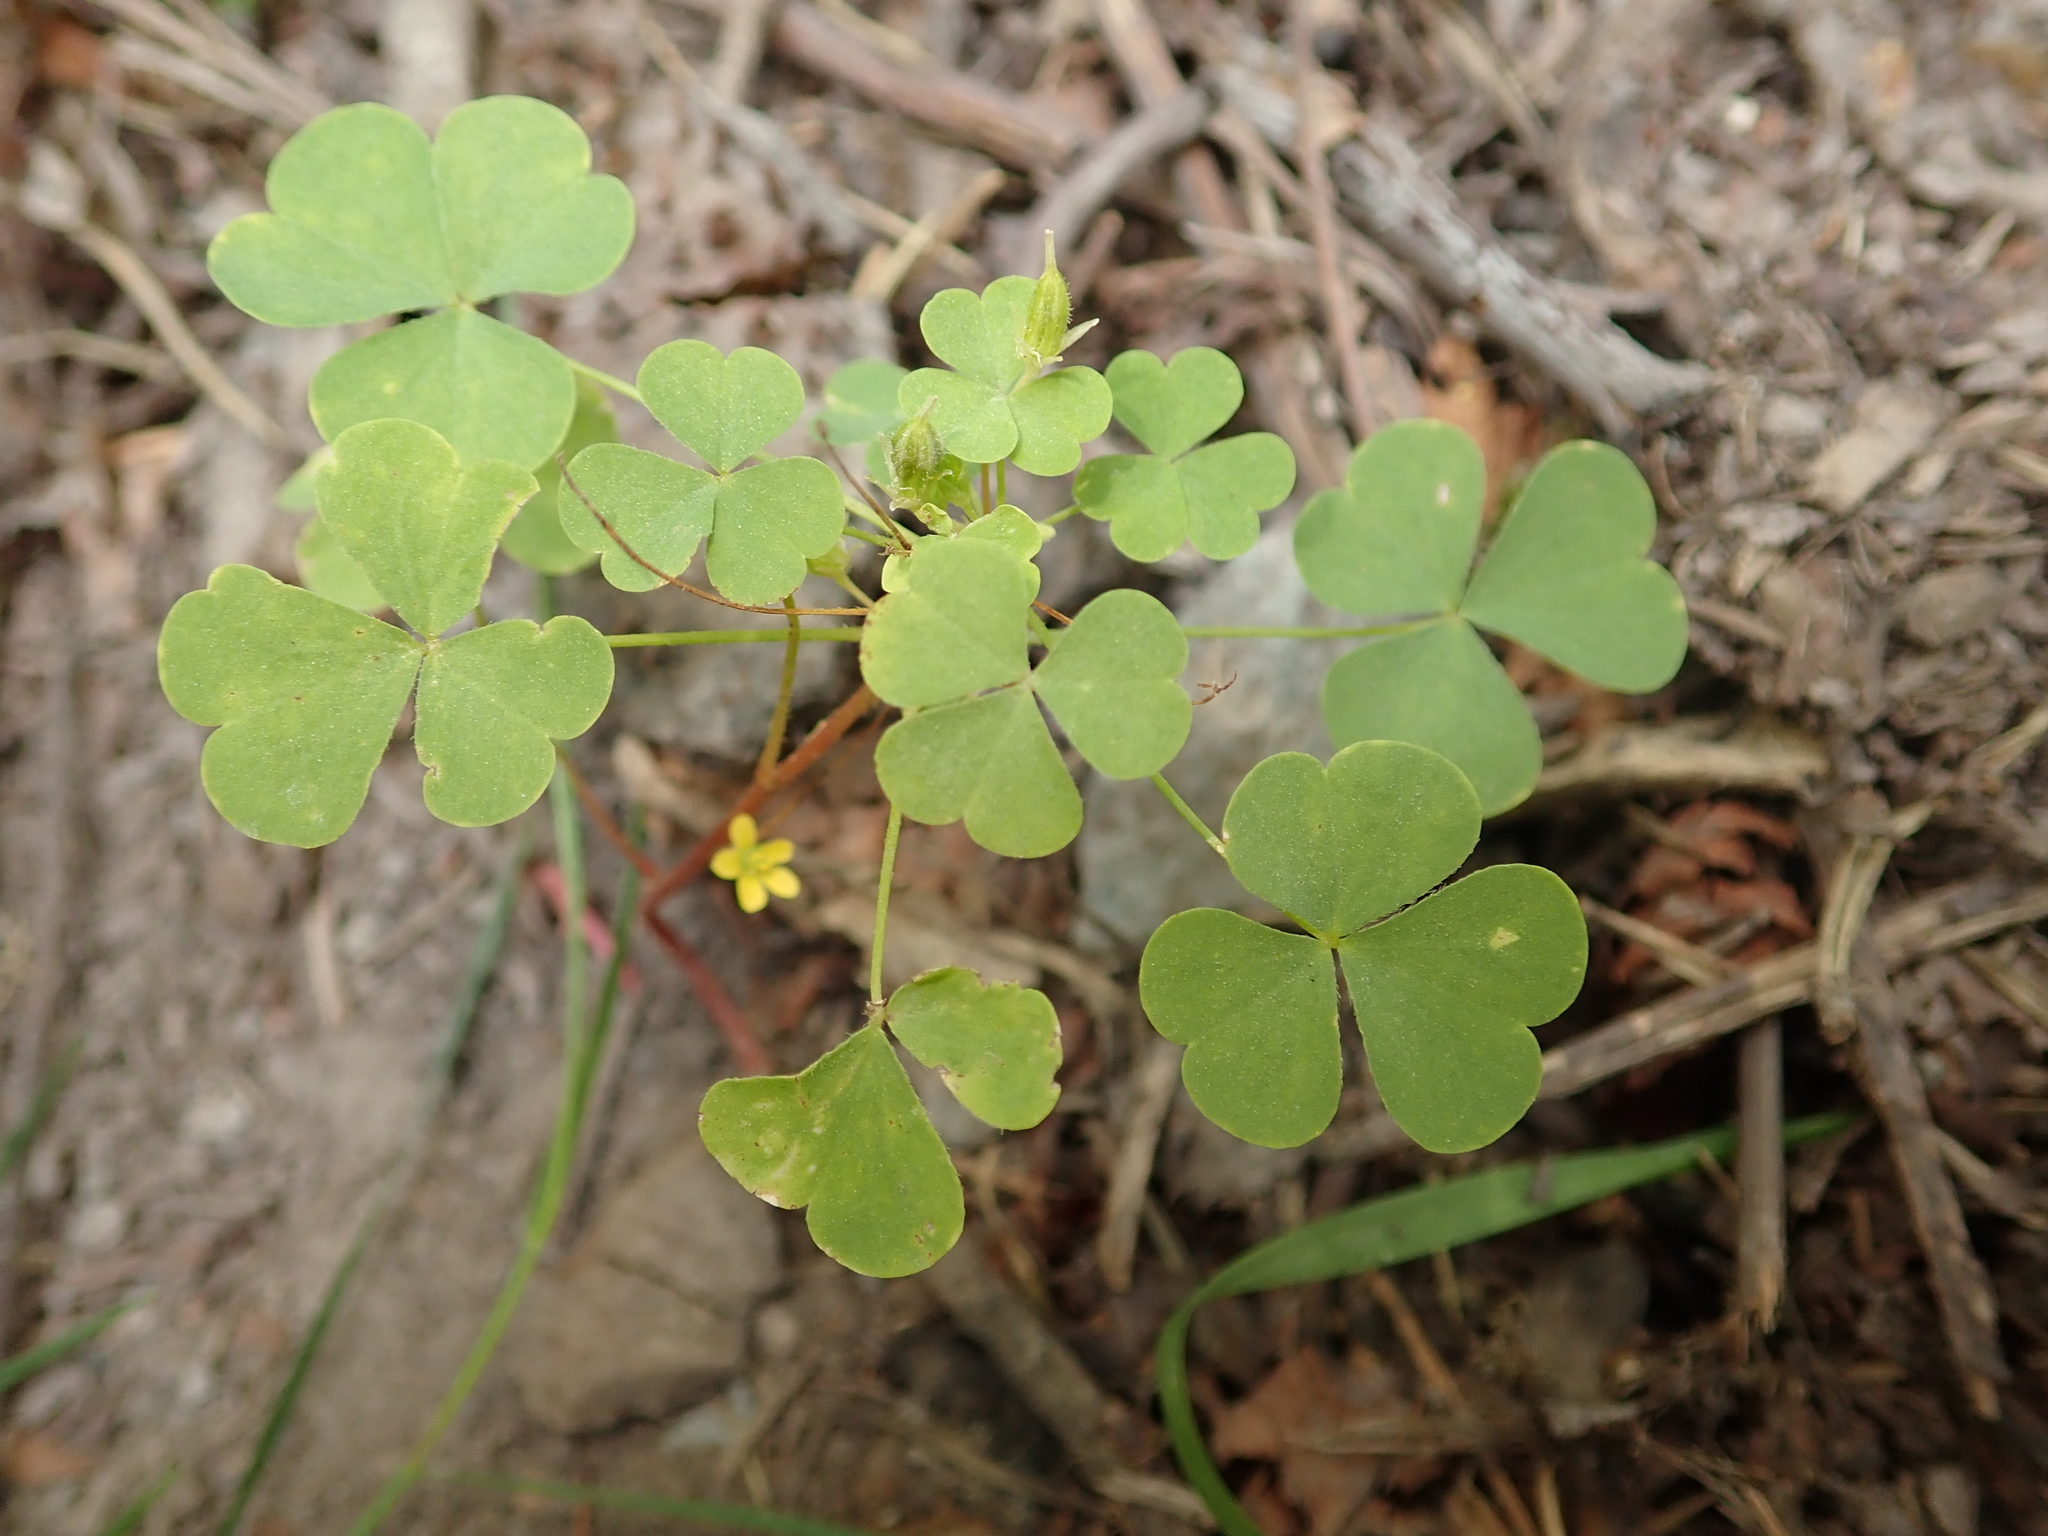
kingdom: Plantae
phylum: Tracheophyta
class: Magnoliopsida
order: Oxalidales
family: Oxalidaceae
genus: Oxalis
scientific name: Oxalis stricta
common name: Upright yellow-sorrel
